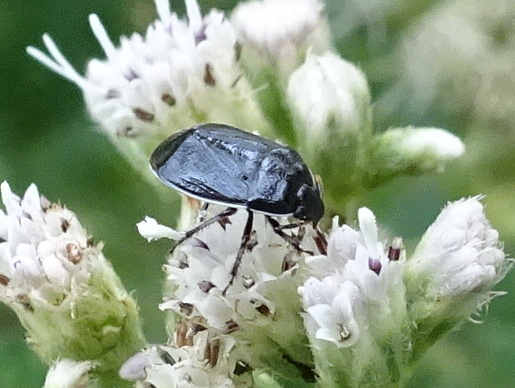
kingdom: Animalia
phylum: Arthropoda
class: Insecta
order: Hemiptera
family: Cydnidae
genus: Sehirus
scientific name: Sehirus cinctus
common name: White-margined burrower bug
